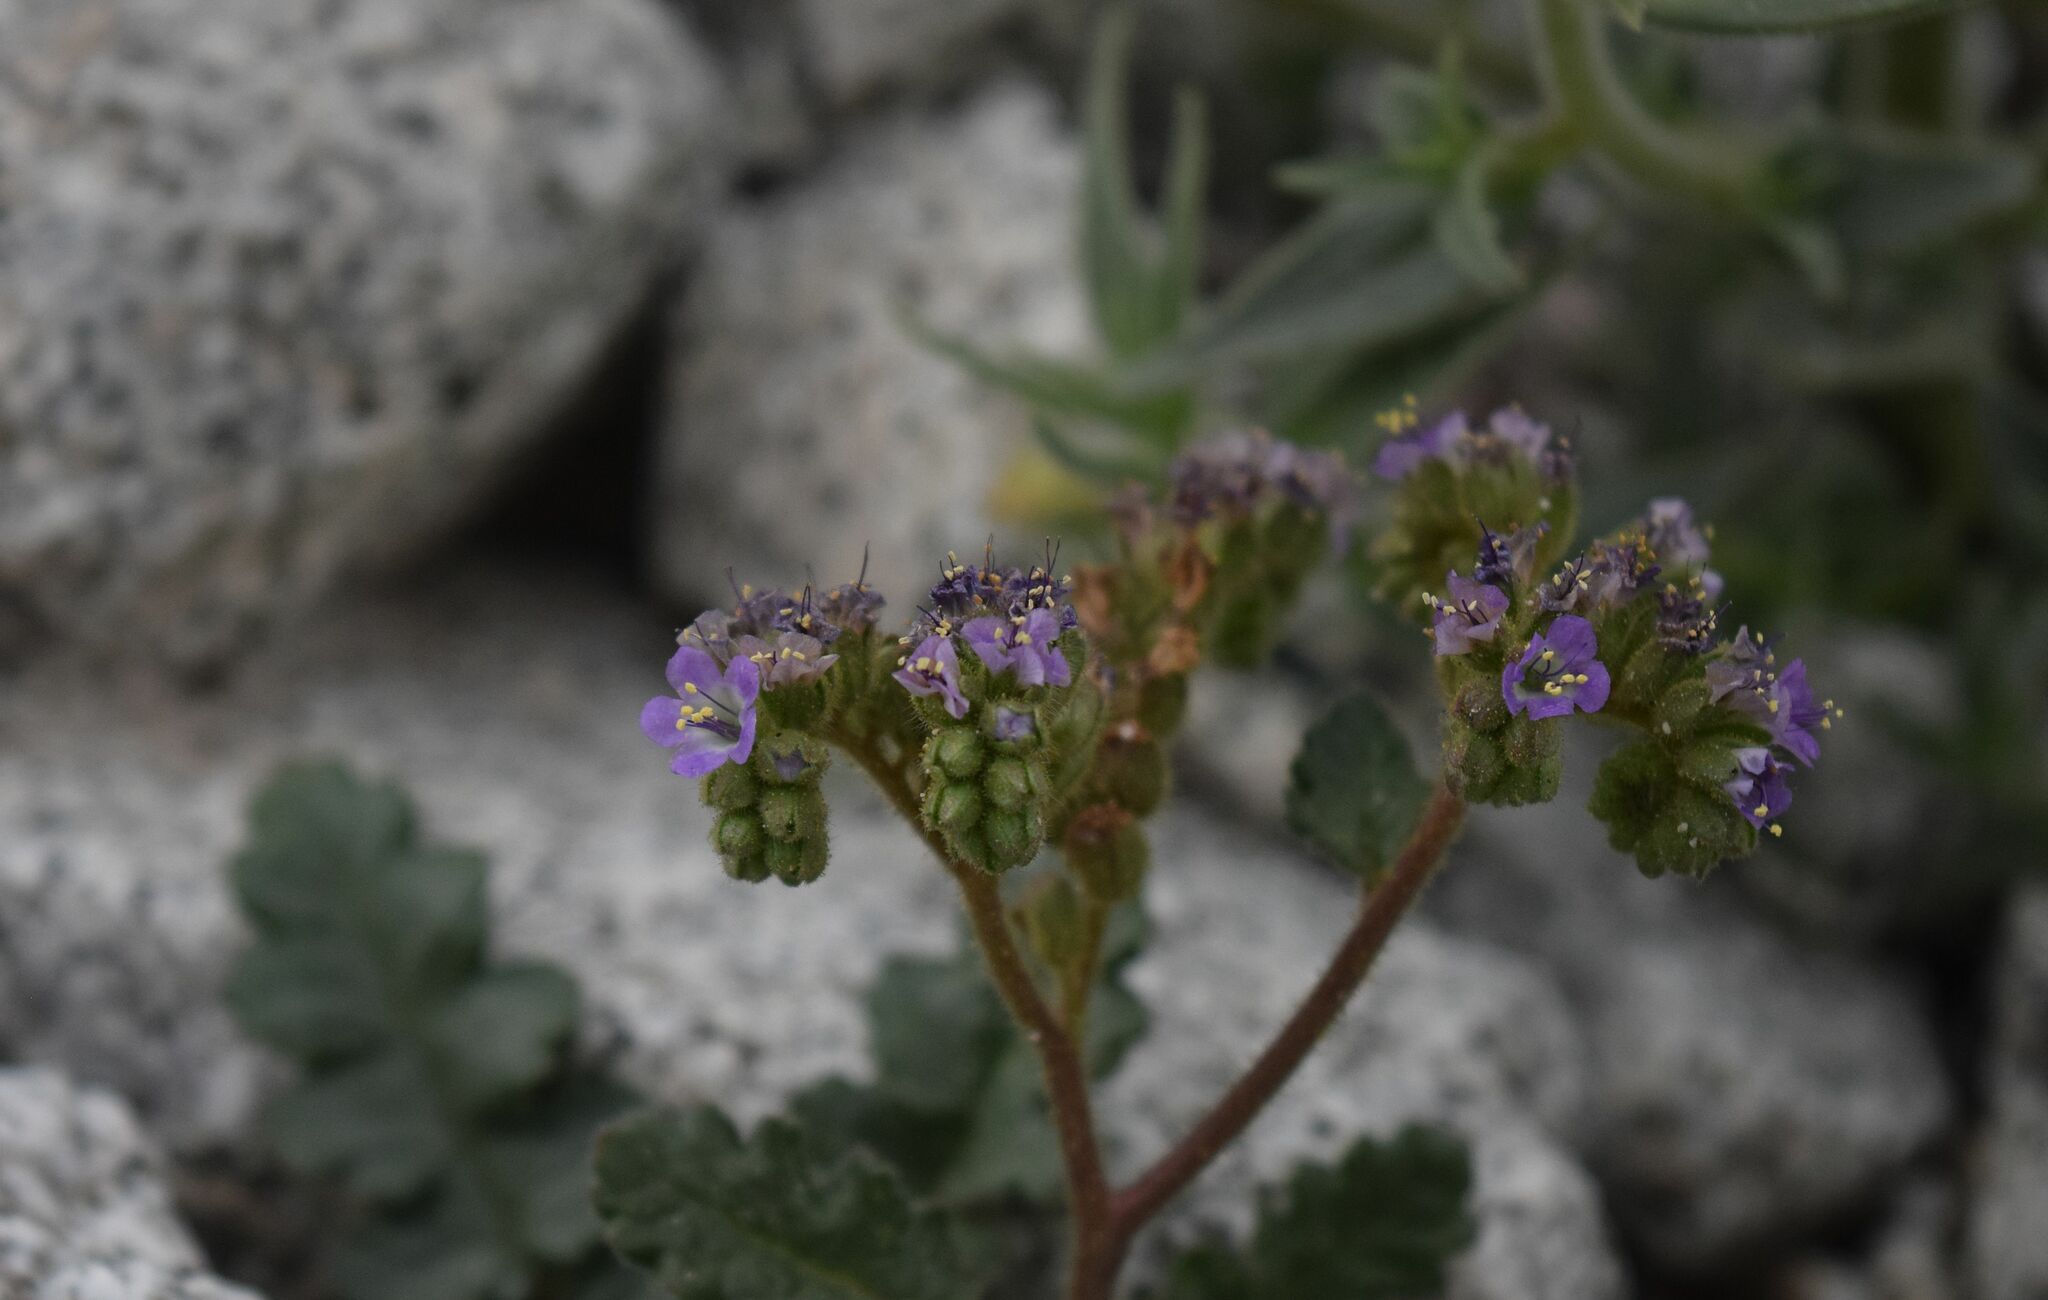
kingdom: Plantae
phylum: Tracheophyta
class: Magnoliopsida
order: Boraginales
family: Hydrophyllaceae
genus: Phacelia
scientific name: Phacelia minutiflora
